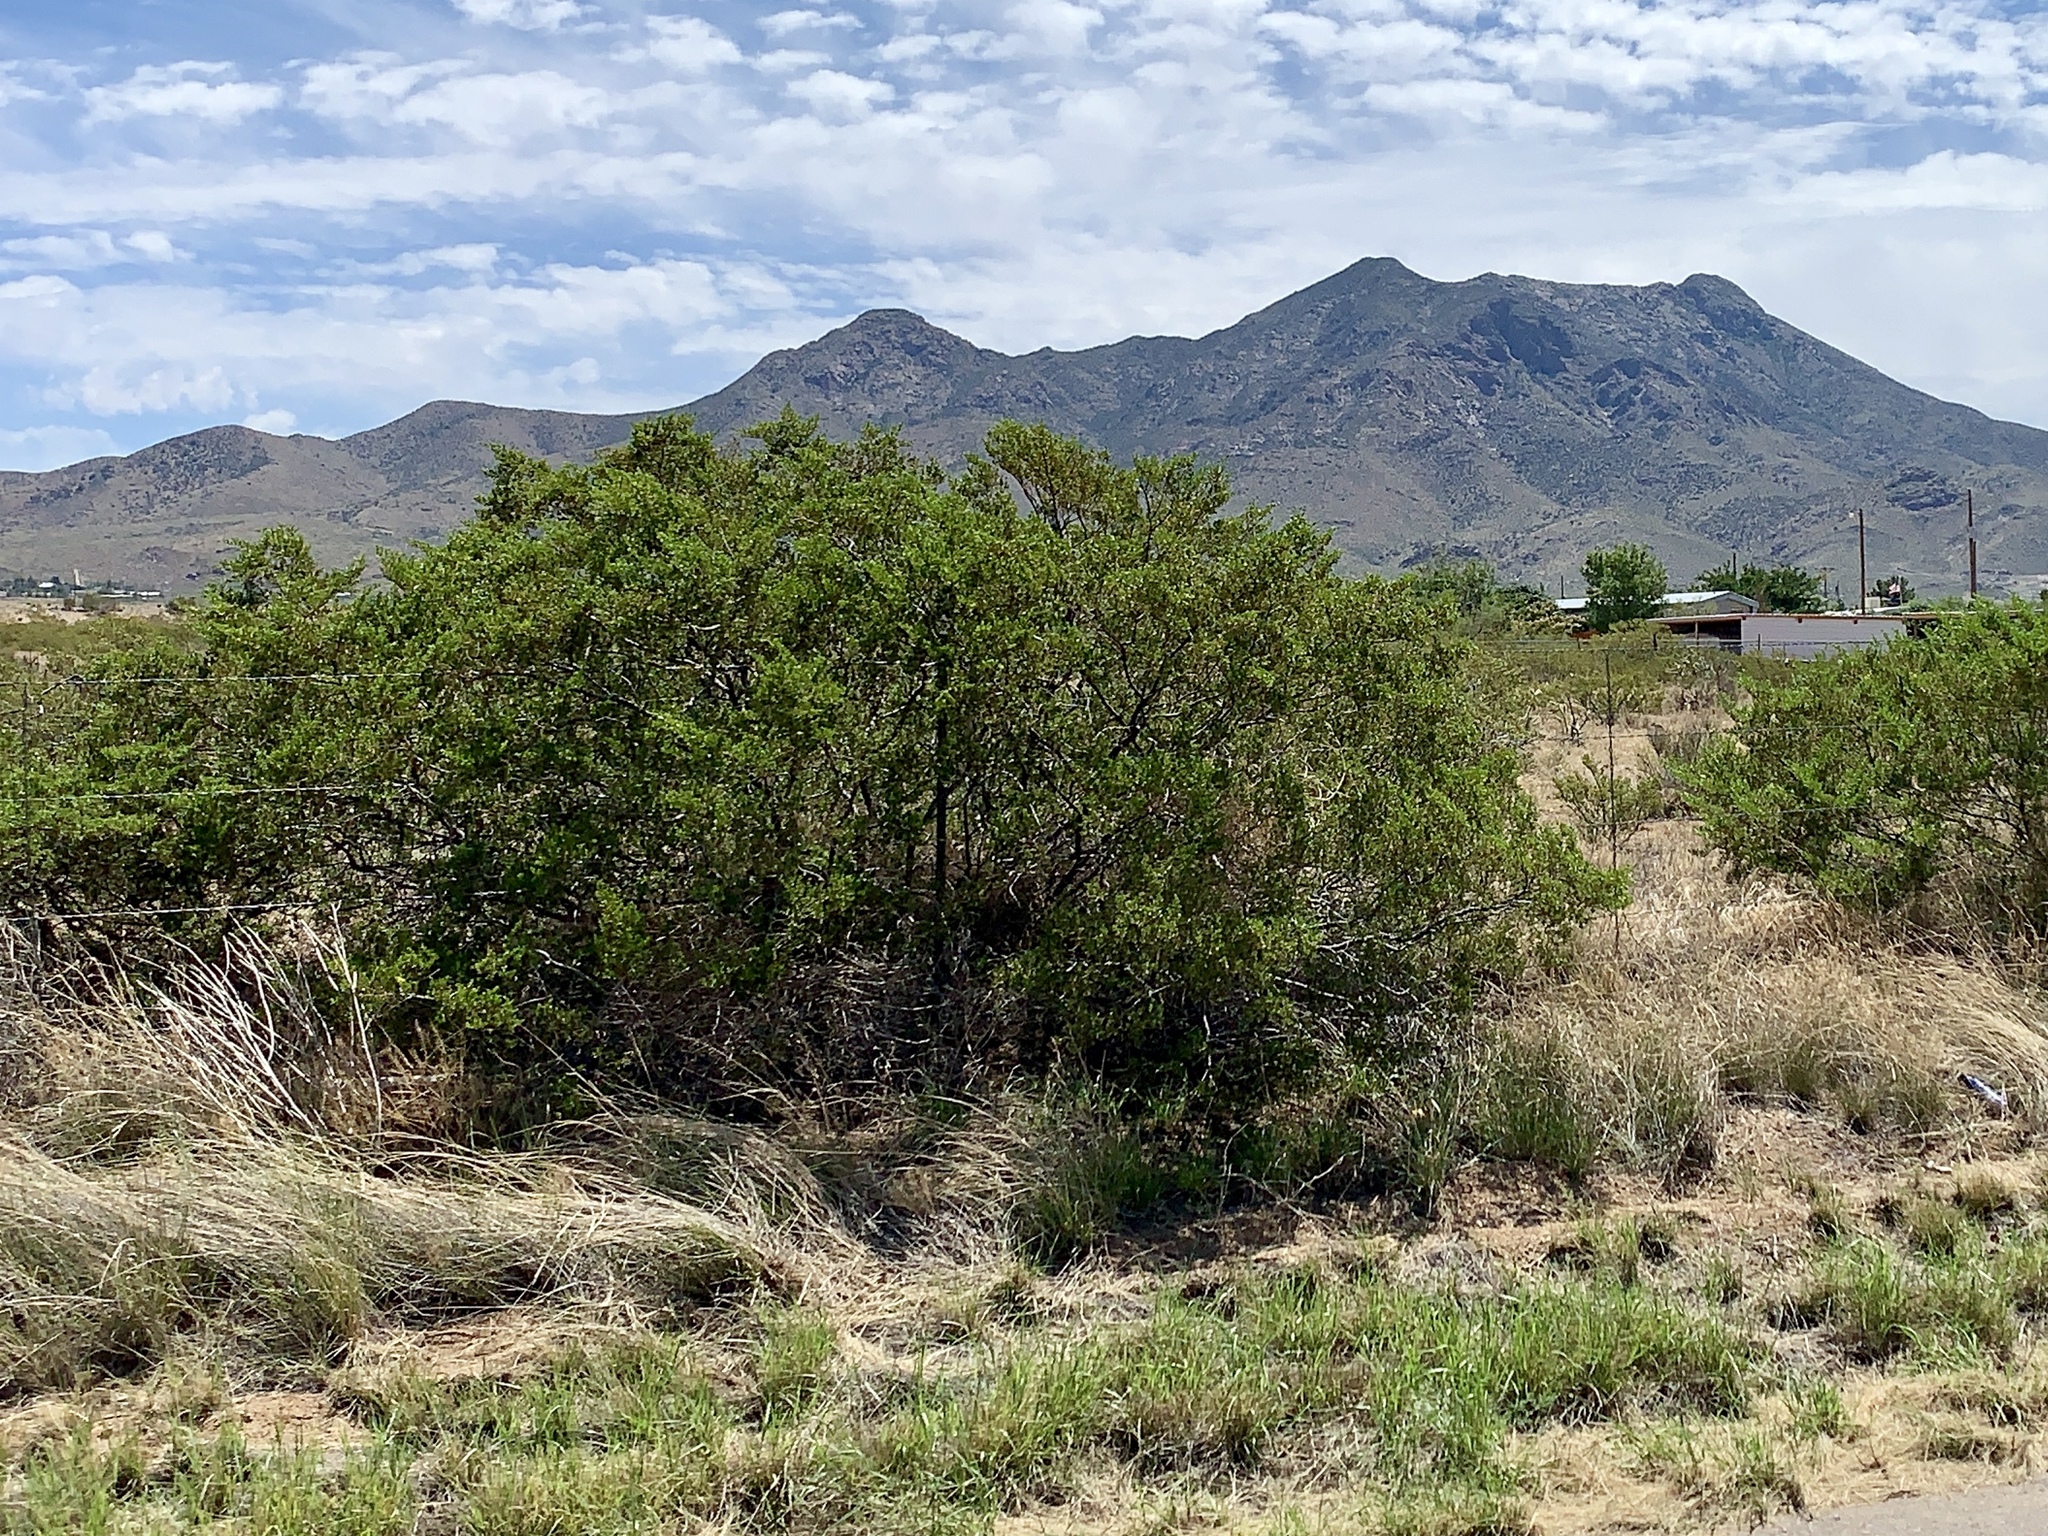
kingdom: Plantae
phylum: Tracheophyta
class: Magnoliopsida
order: Zygophyllales
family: Zygophyllaceae
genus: Larrea
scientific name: Larrea tridentata
